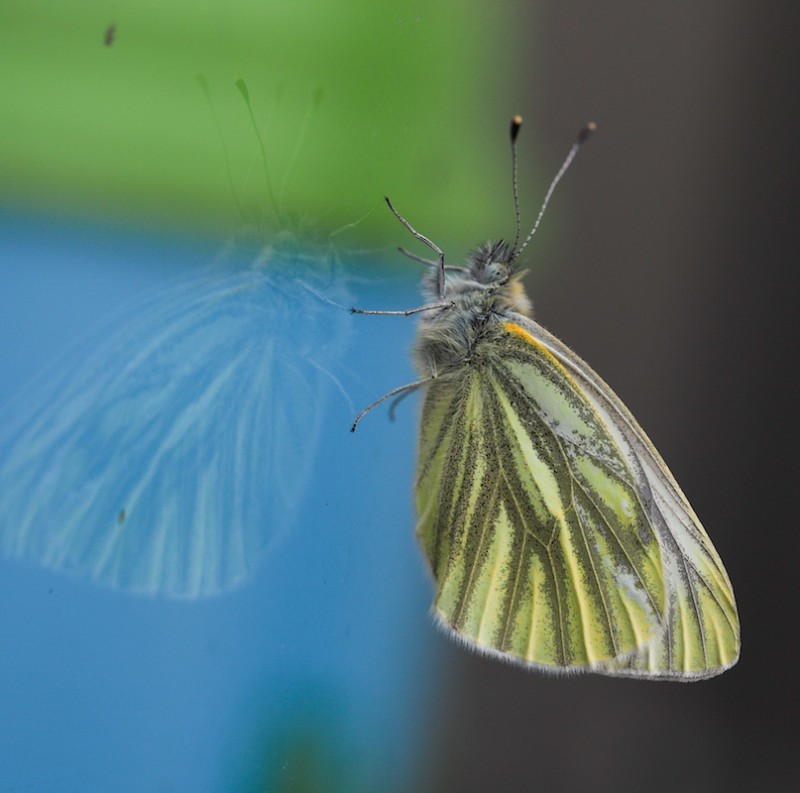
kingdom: Animalia
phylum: Arthropoda
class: Insecta
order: Lepidoptera
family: Pieridae
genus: Pieris
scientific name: Pieris napi
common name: Green-veined white
